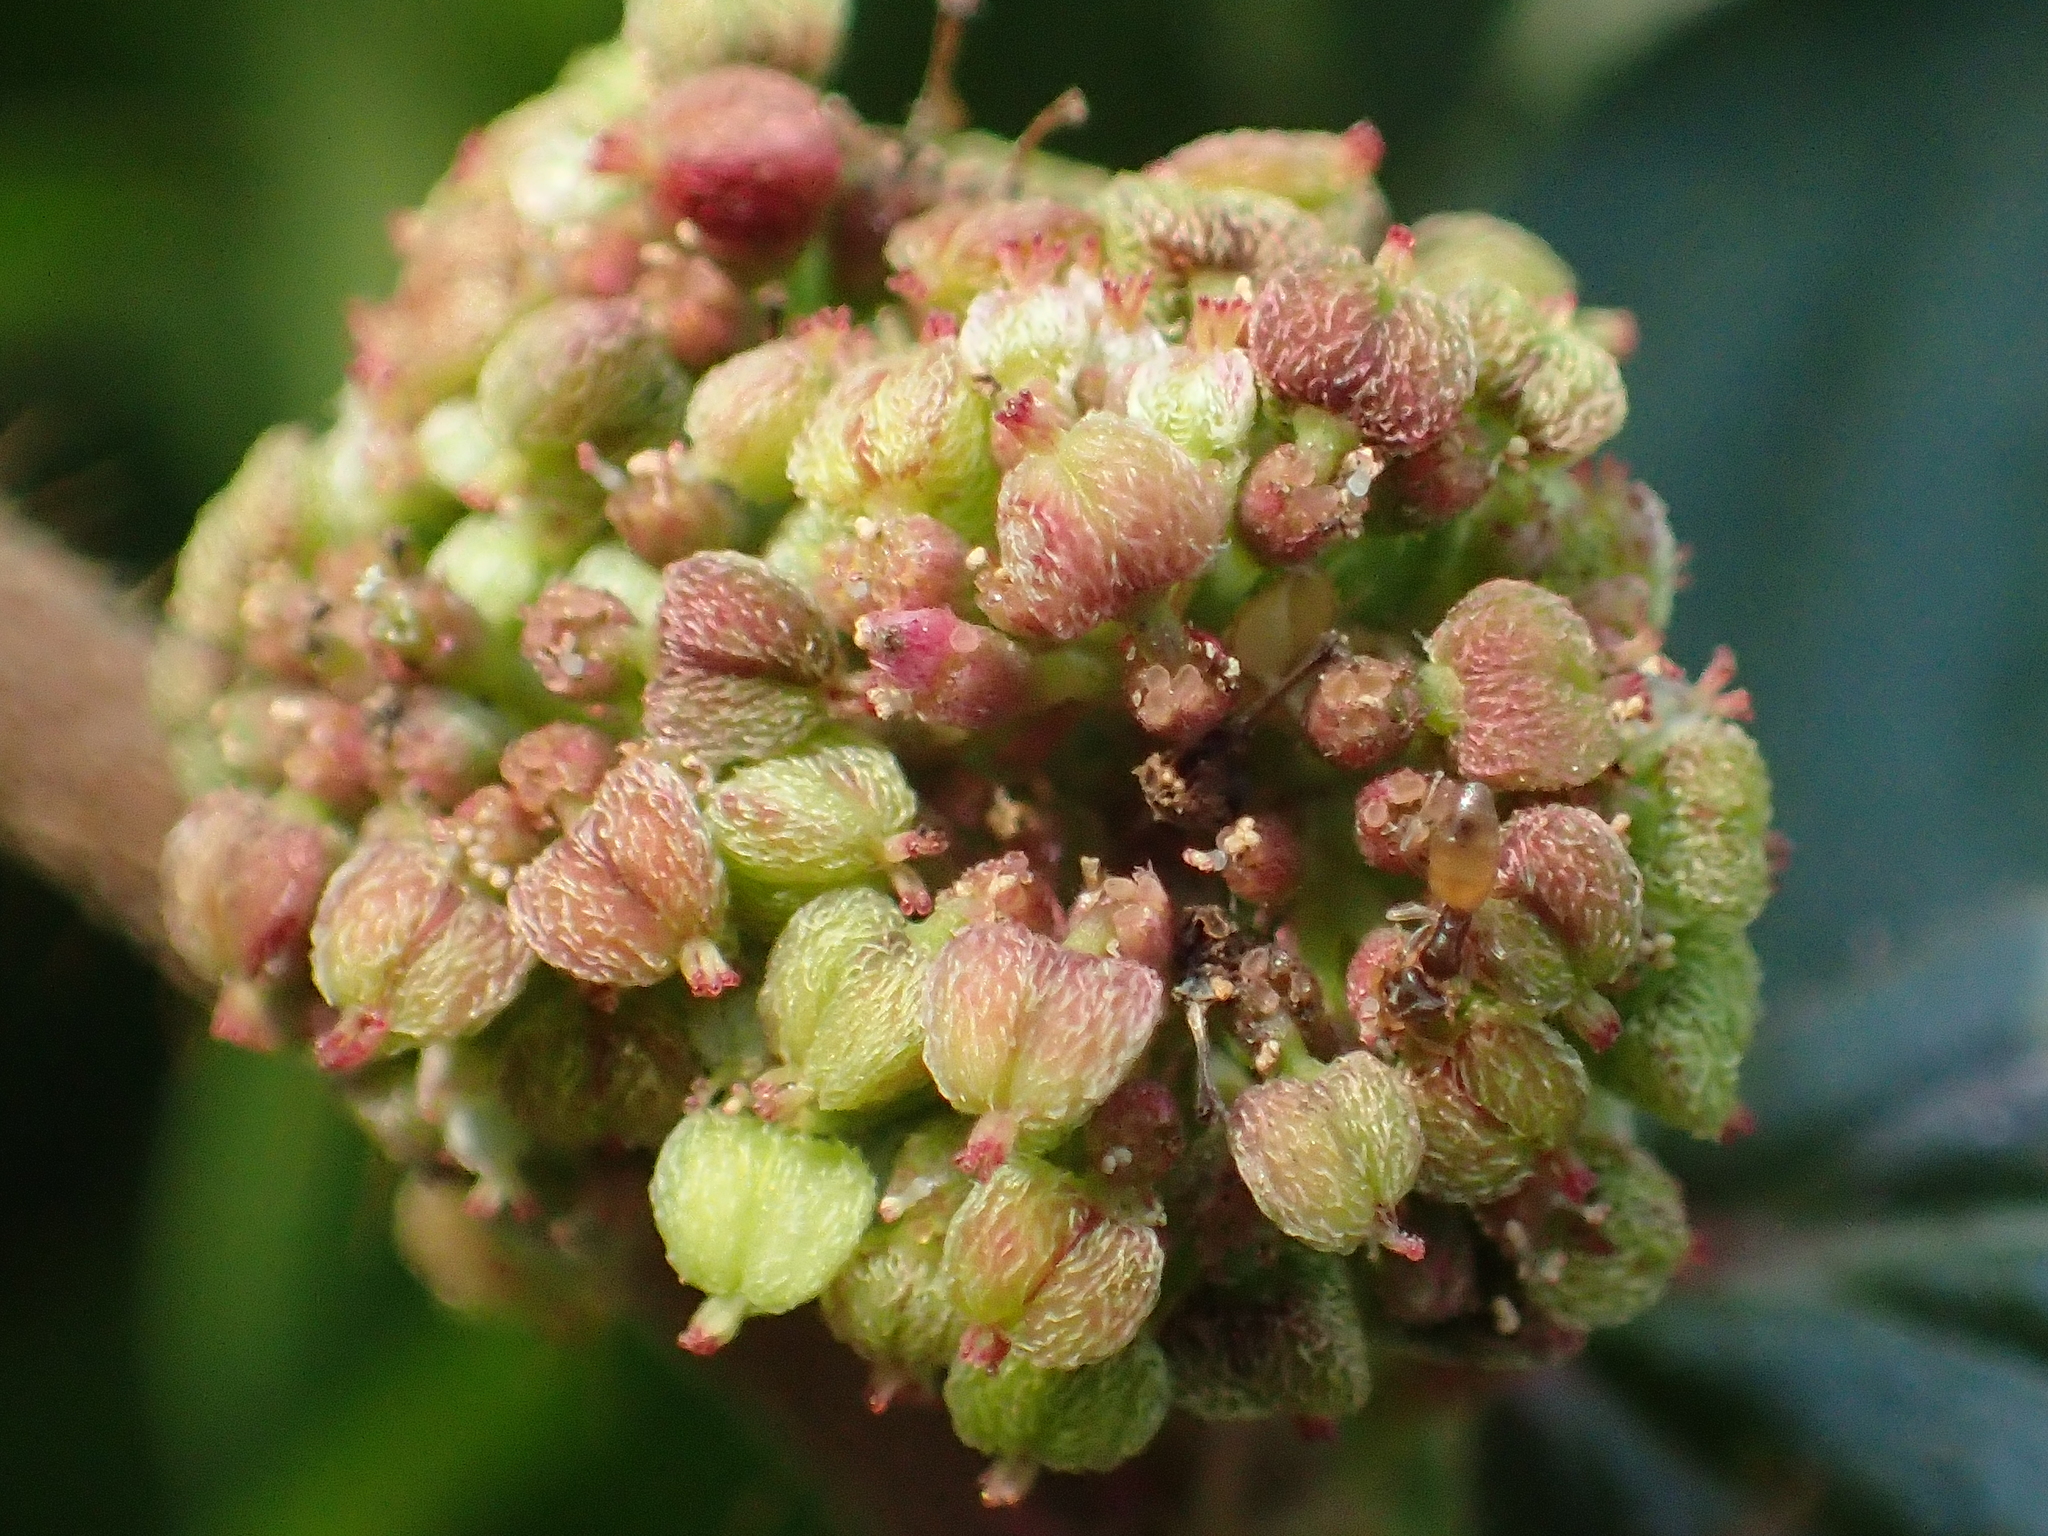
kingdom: Plantae
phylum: Tracheophyta
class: Magnoliopsida
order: Malpighiales
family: Euphorbiaceae
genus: Euphorbia
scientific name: Euphorbia hirta
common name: Pillpod sandmat
